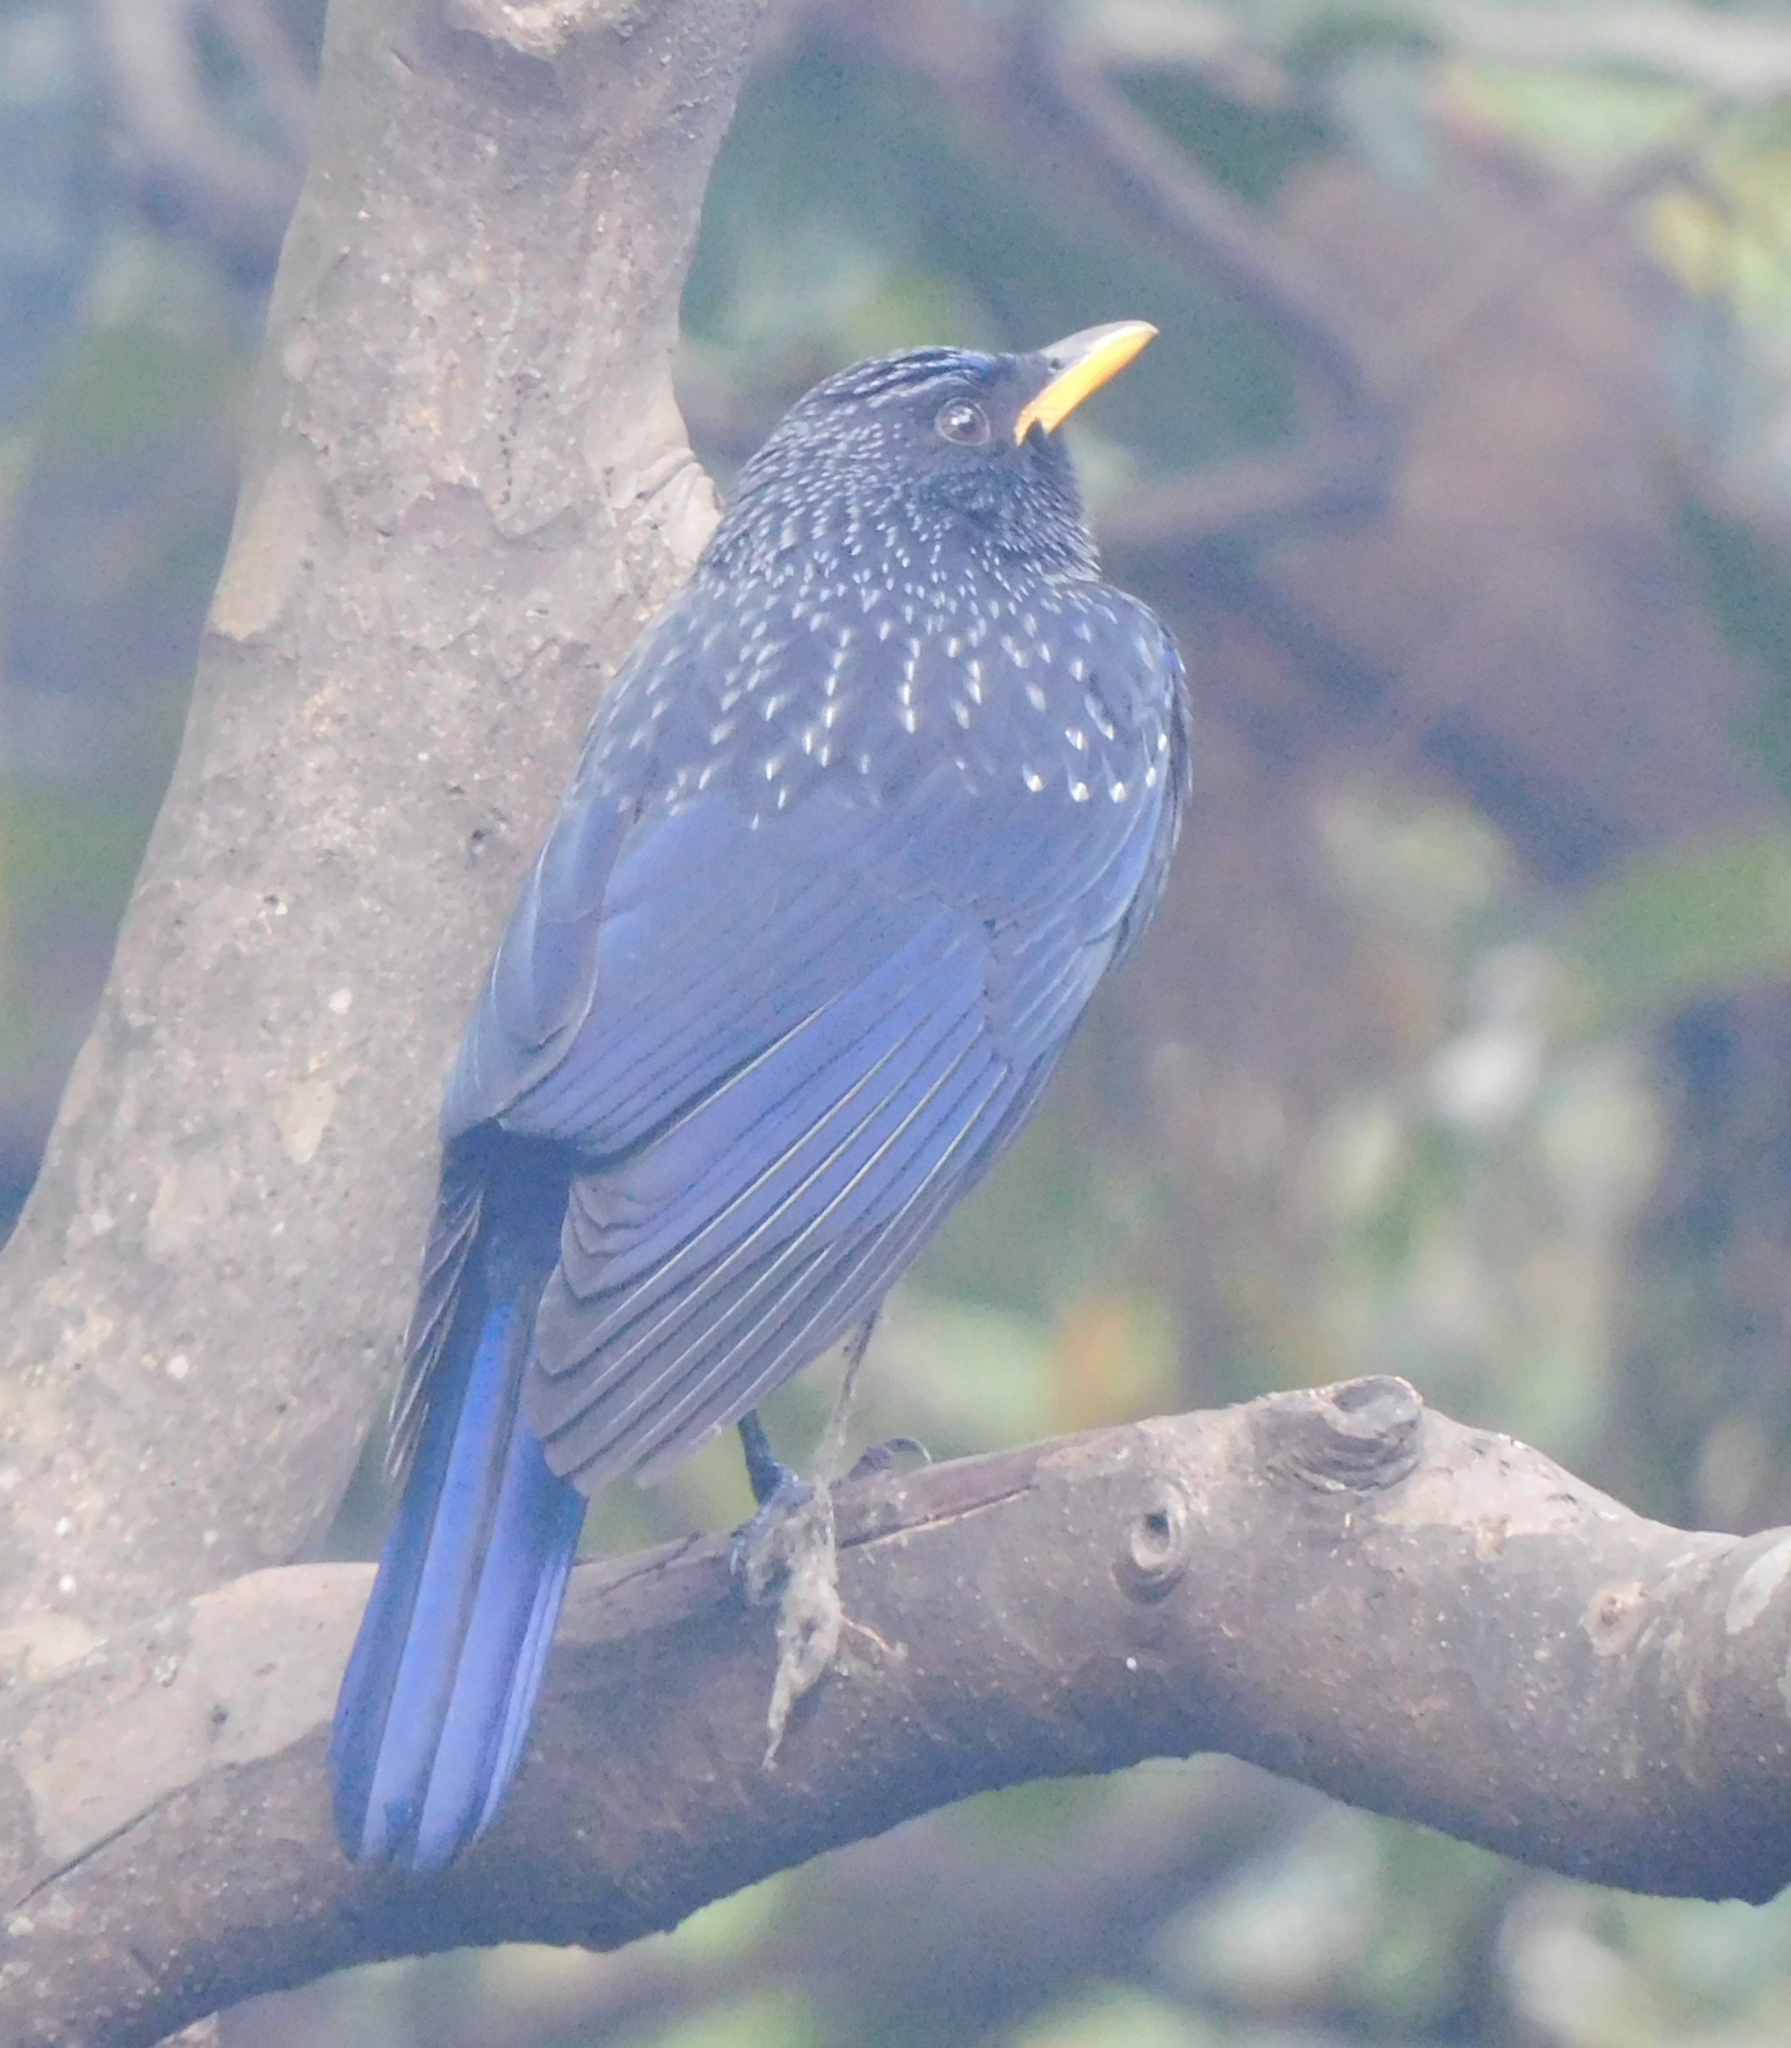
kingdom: Animalia
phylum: Chordata
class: Aves
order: Passeriformes
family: Muscicapidae
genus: Myophonus
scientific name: Myophonus caeruleus
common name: Blue whistling-thrush
